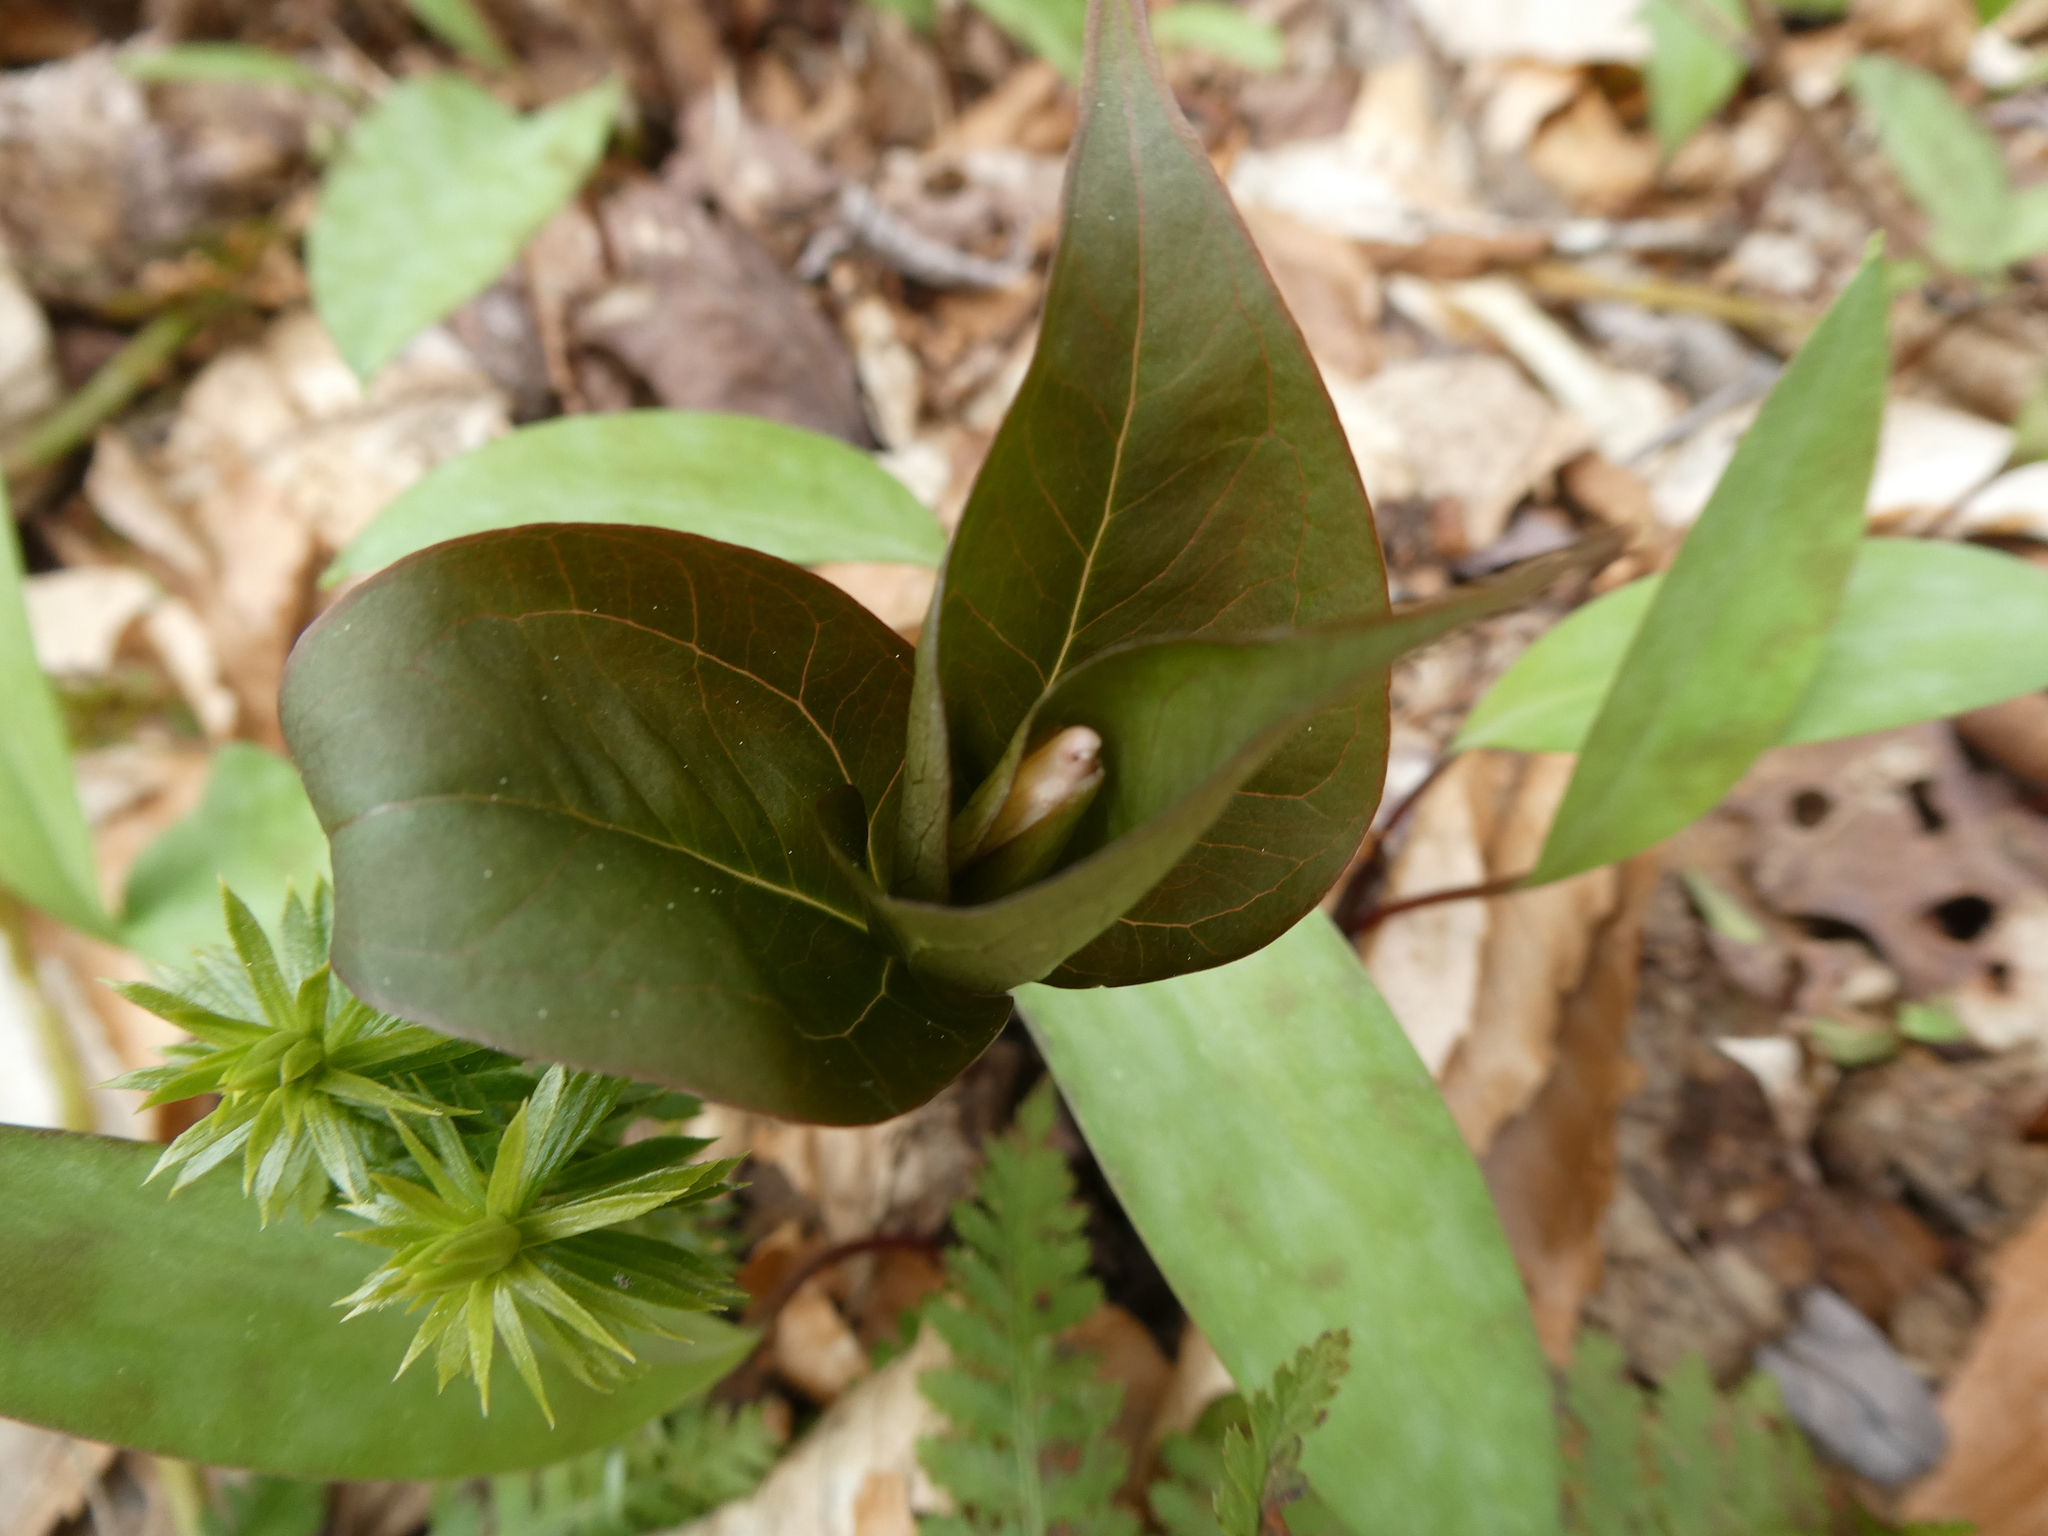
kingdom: Plantae
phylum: Tracheophyta
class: Liliopsida
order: Liliales
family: Melanthiaceae
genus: Trillium
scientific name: Trillium undulatum
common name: Paint trillium
